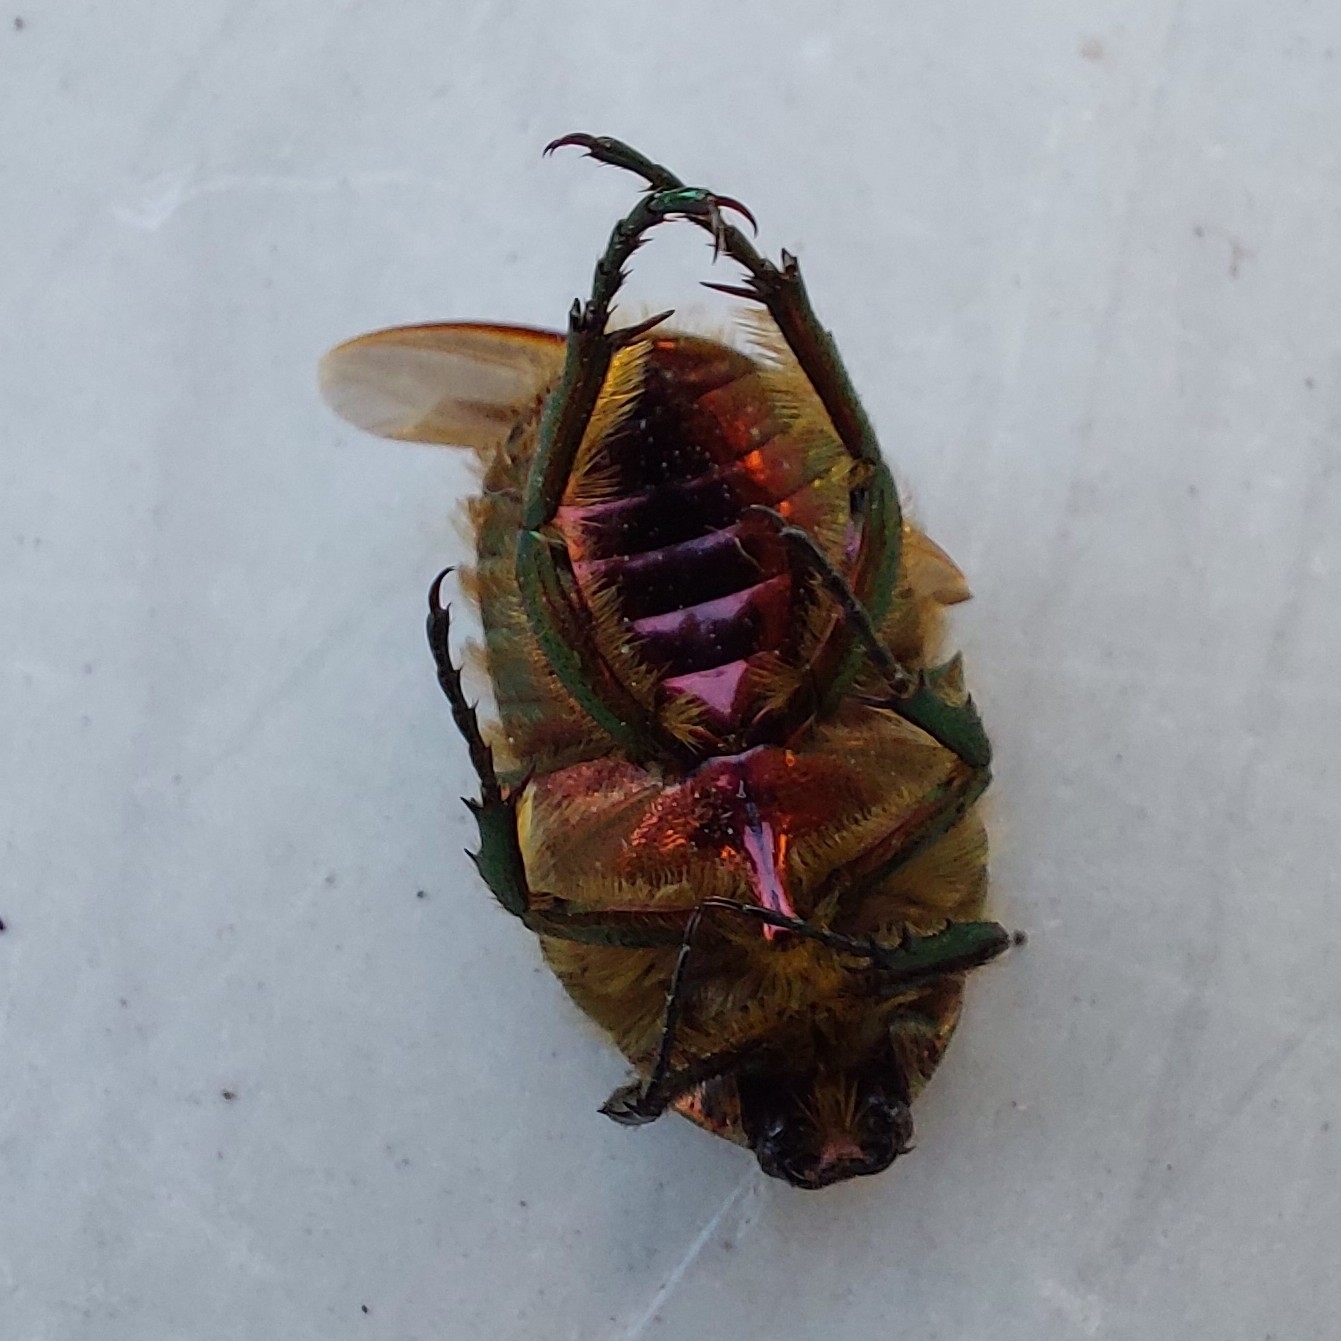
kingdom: Animalia
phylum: Arthropoda
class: Insecta
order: Coleoptera
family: Scarabaeidae
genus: Cetonia
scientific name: Cetonia aurata
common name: Rose chafer
